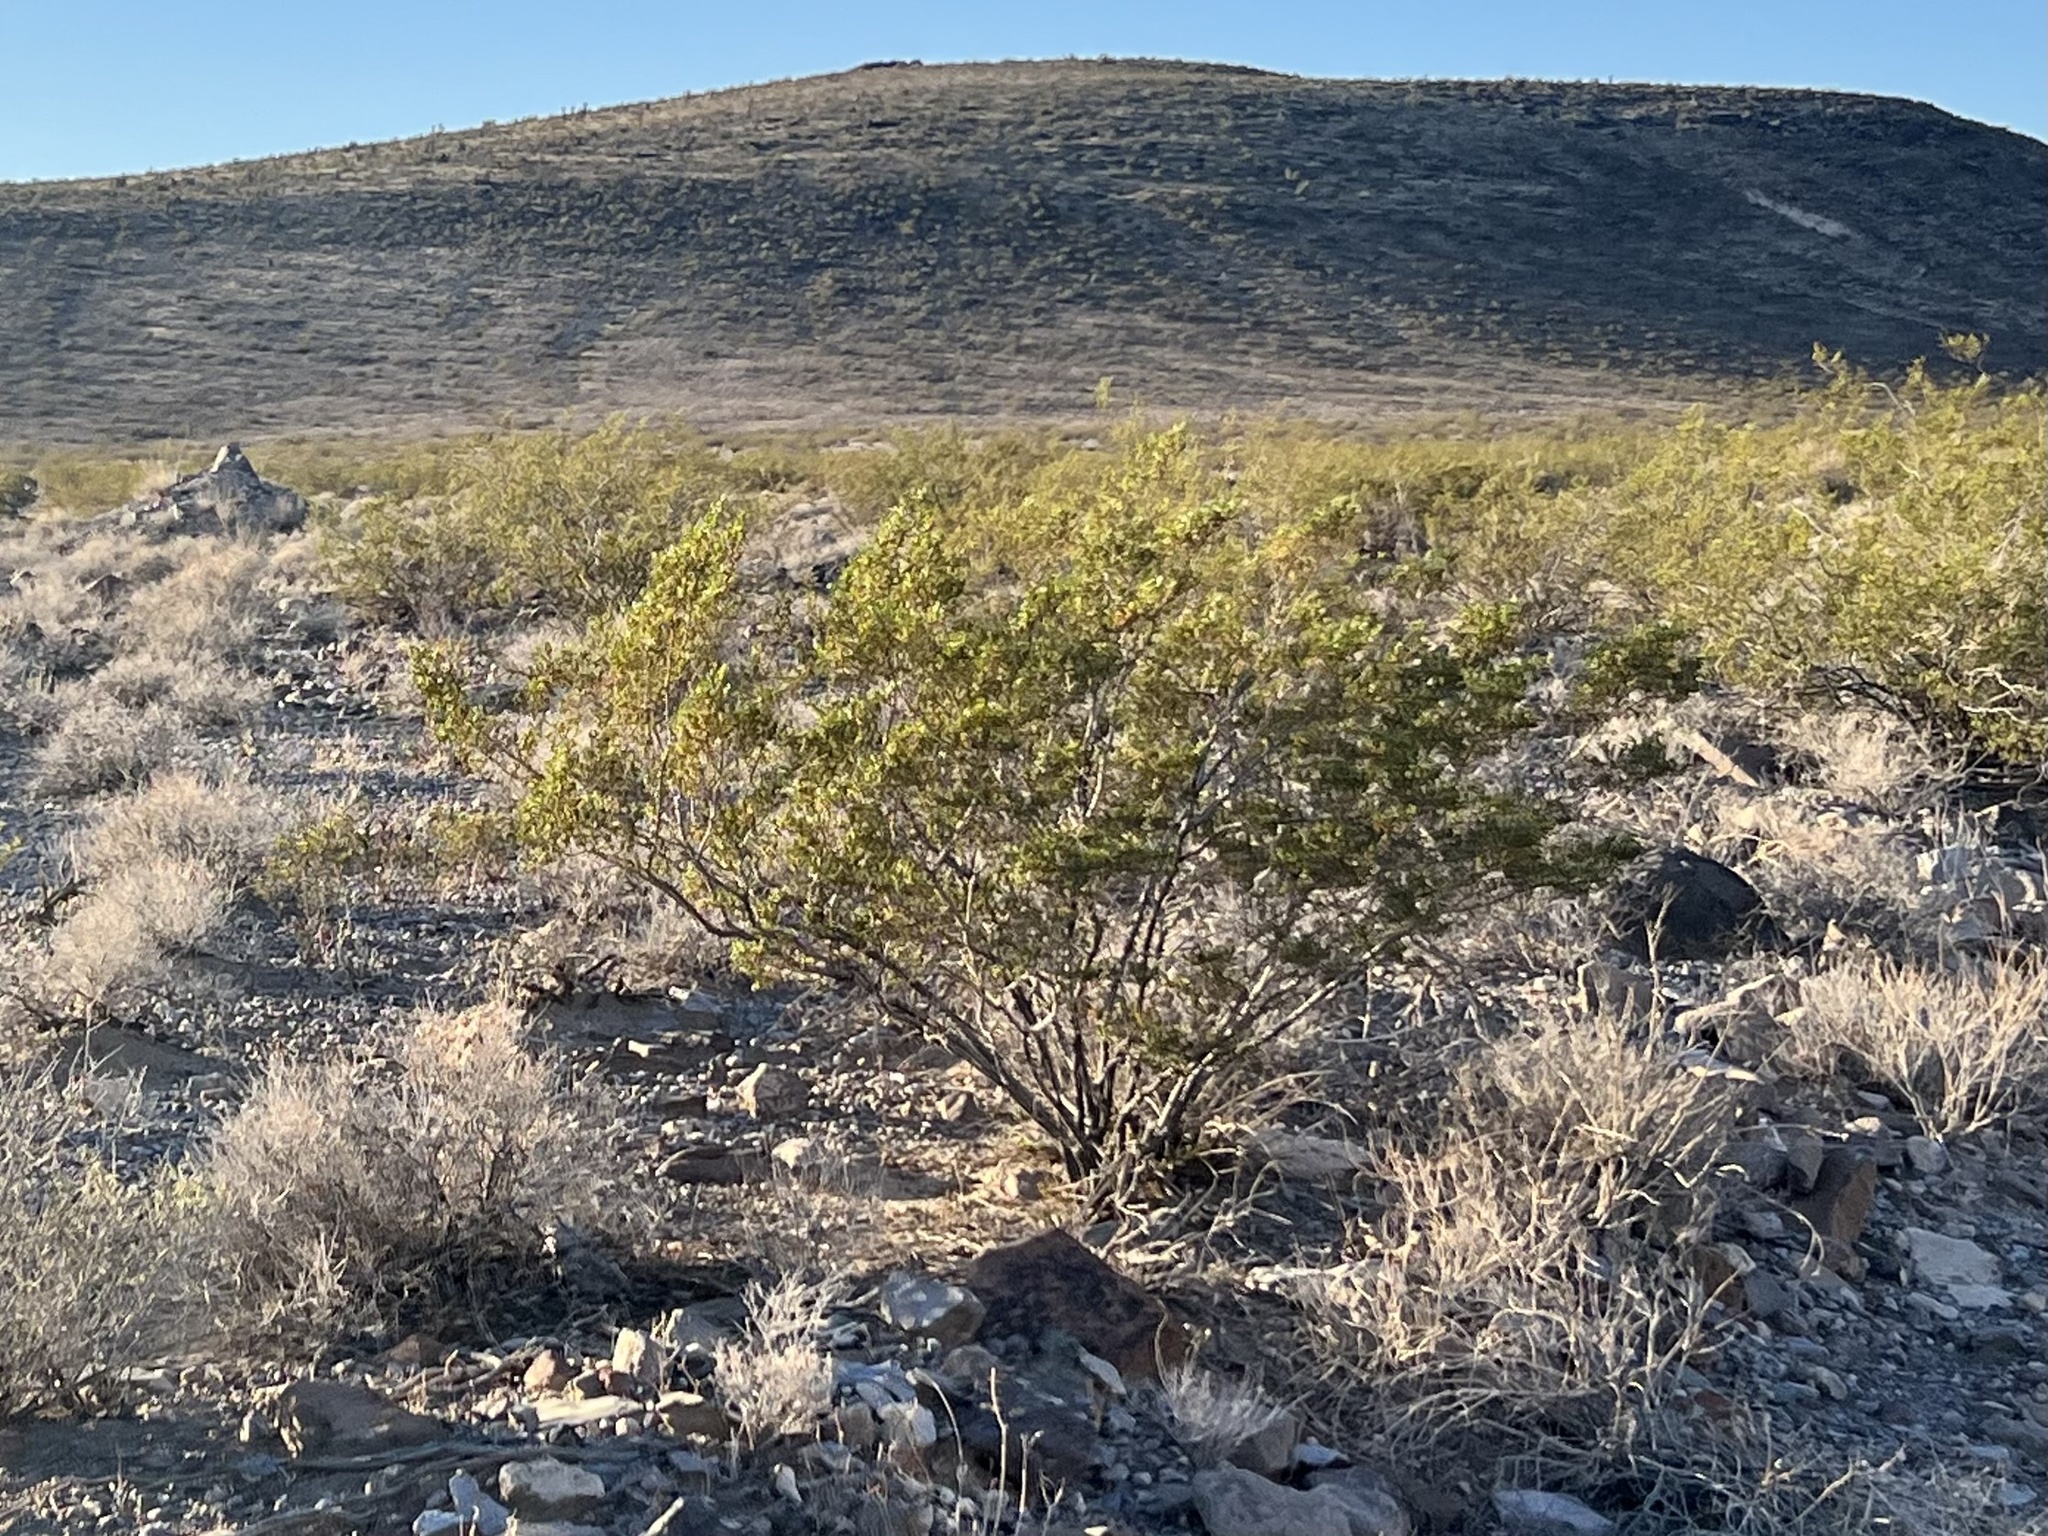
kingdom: Plantae
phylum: Tracheophyta
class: Magnoliopsida
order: Zygophyllales
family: Zygophyllaceae
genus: Larrea
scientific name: Larrea tridentata
